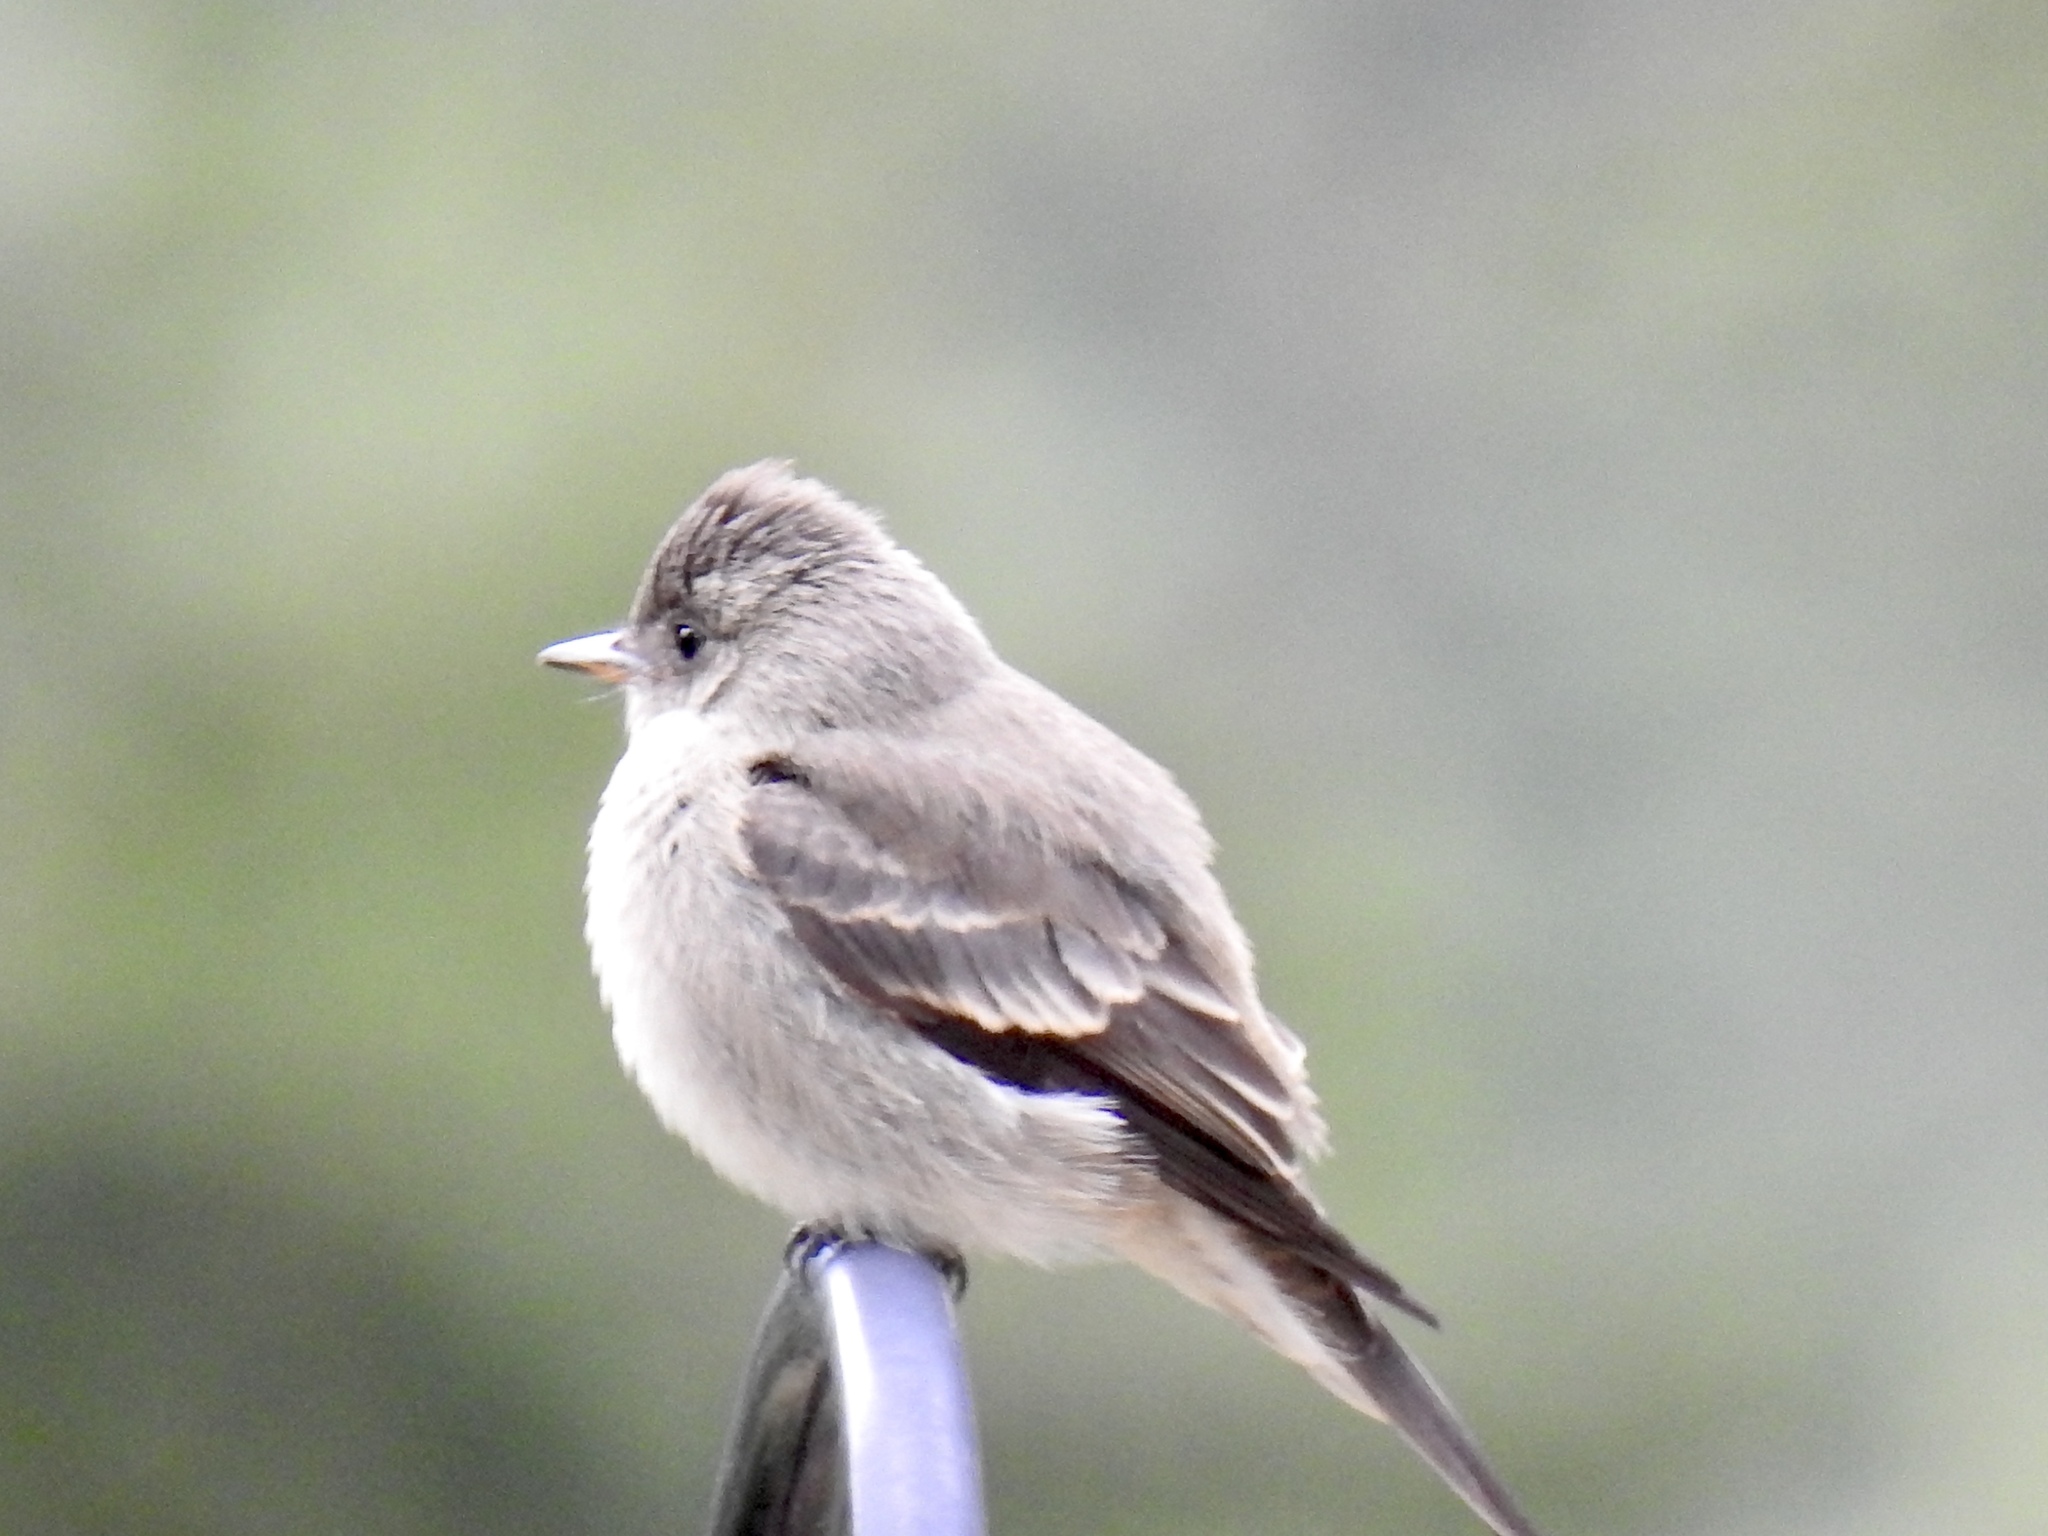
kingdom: Animalia
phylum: Chordata
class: Aves
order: Passeriformes
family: Tyrannidae
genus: Contopus
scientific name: Contopus sordidulus
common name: Western wood-pewee
